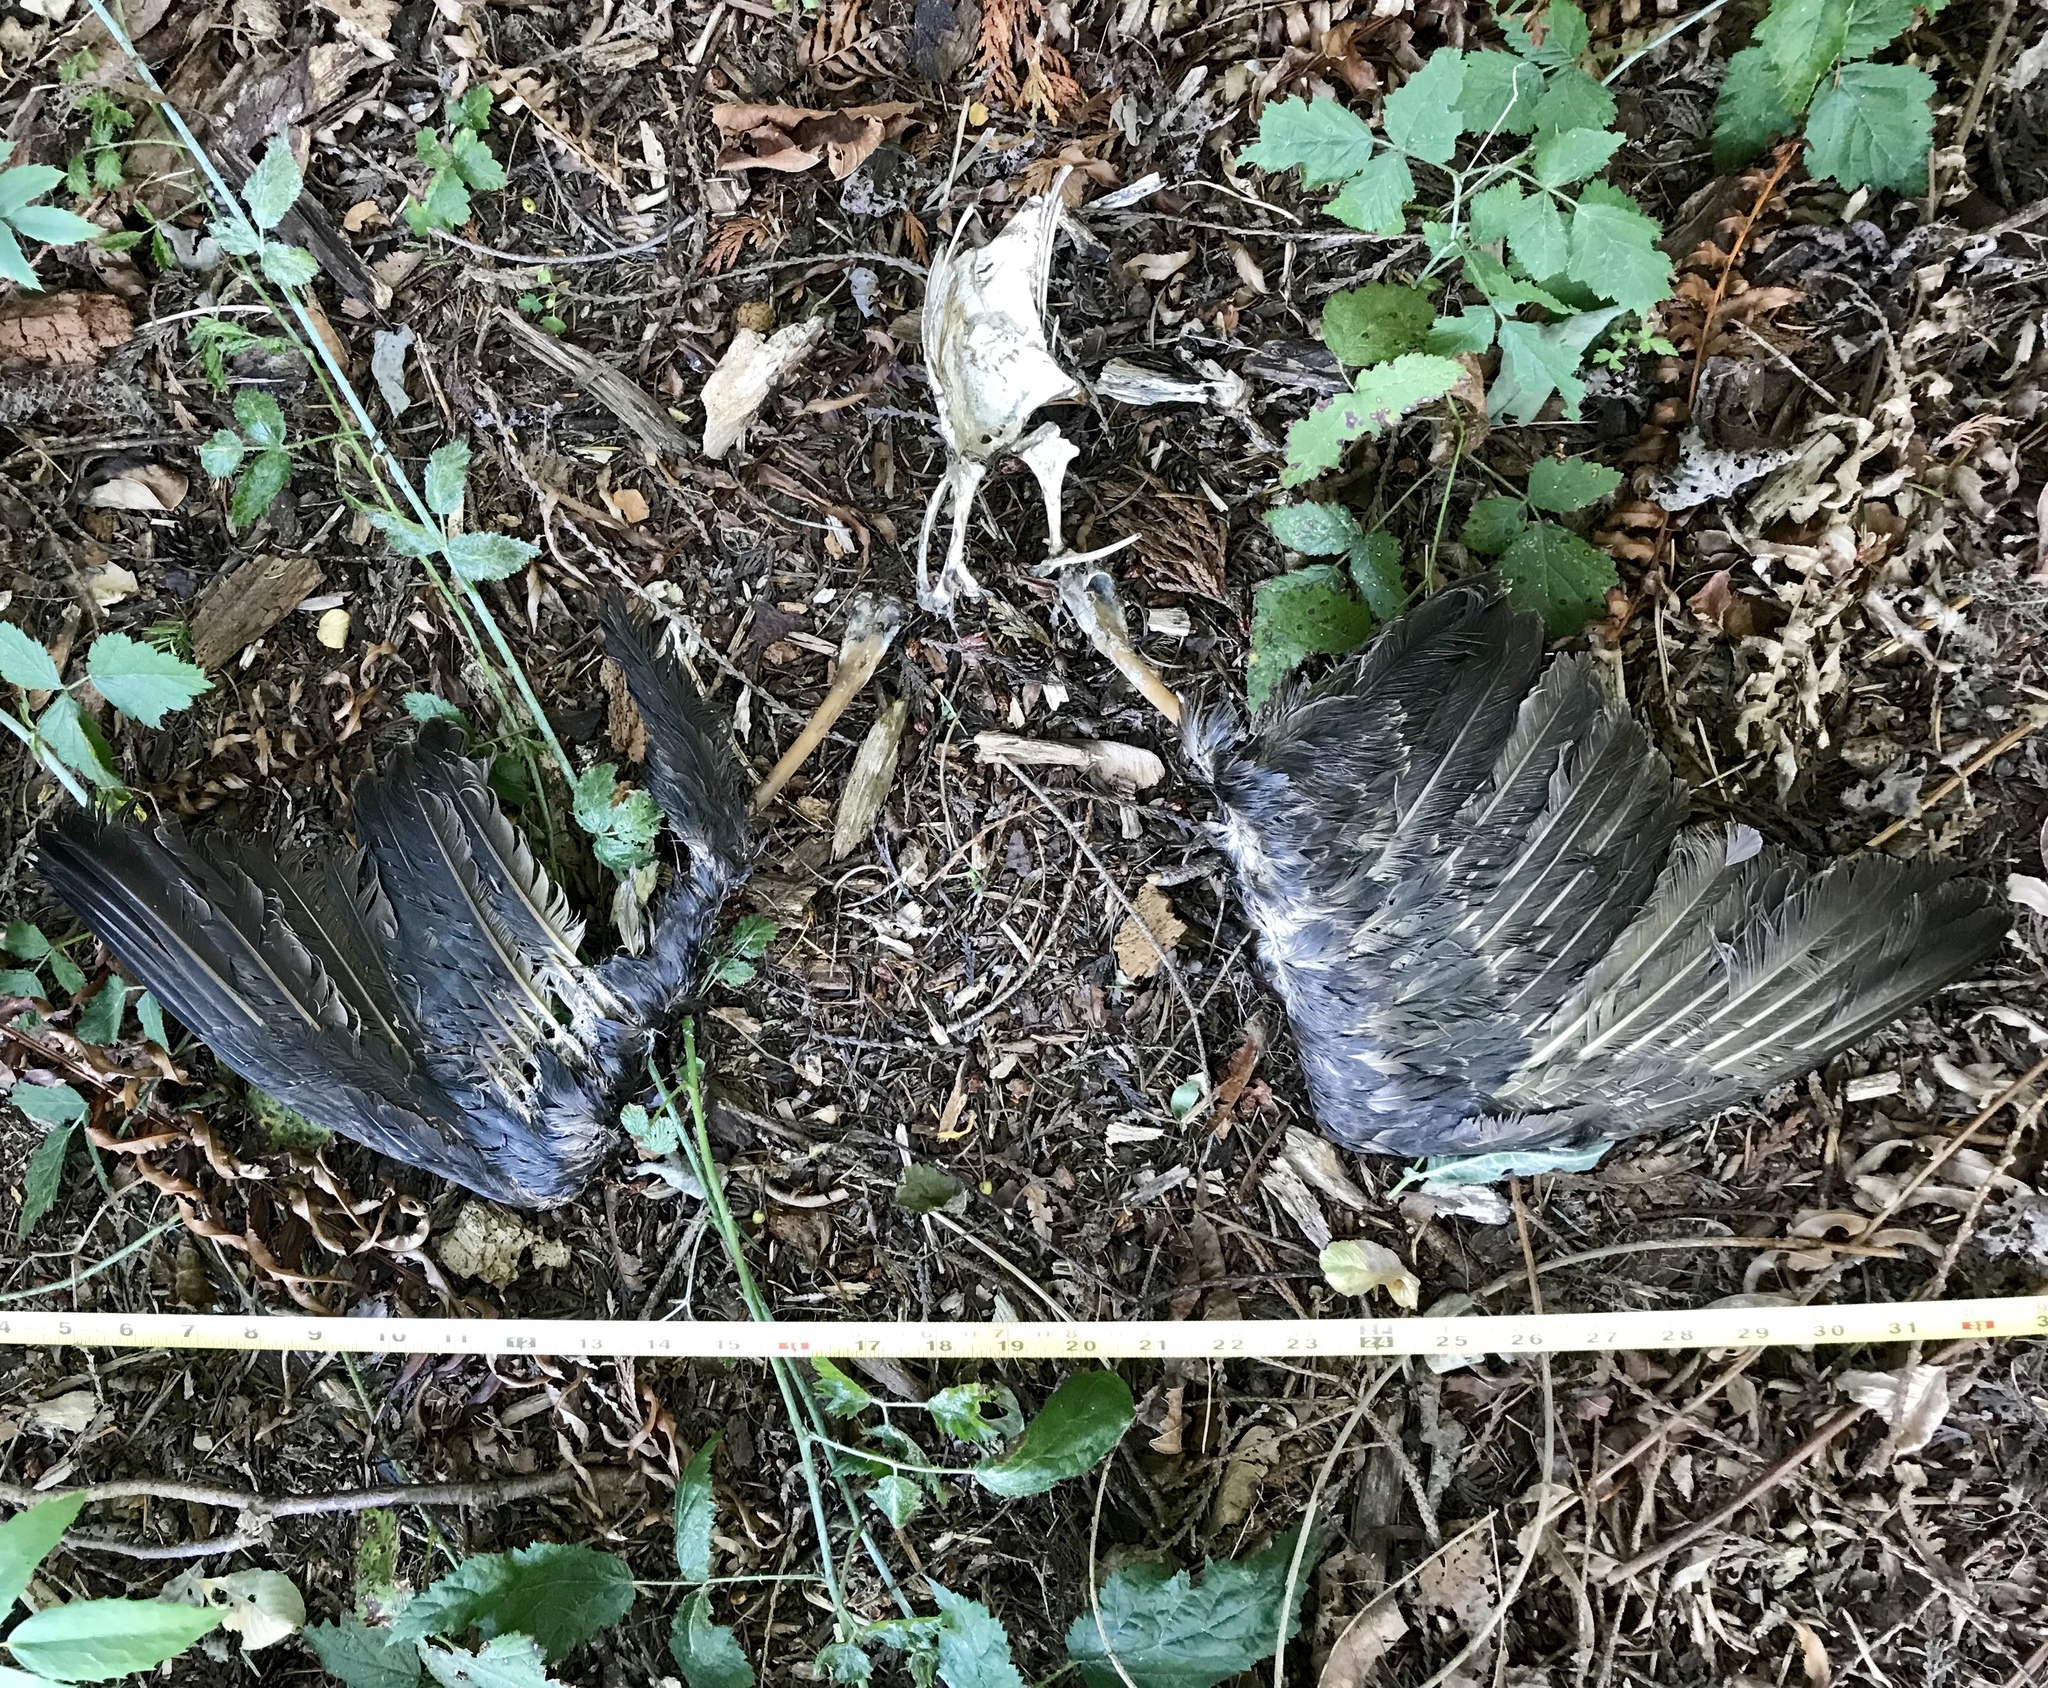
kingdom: Animalia
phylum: Chordata
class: Aves
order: Pelecaniformes
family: Pelecanidae
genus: Pelecanus
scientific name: Pelecanus occidentalis
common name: Brown pelican
